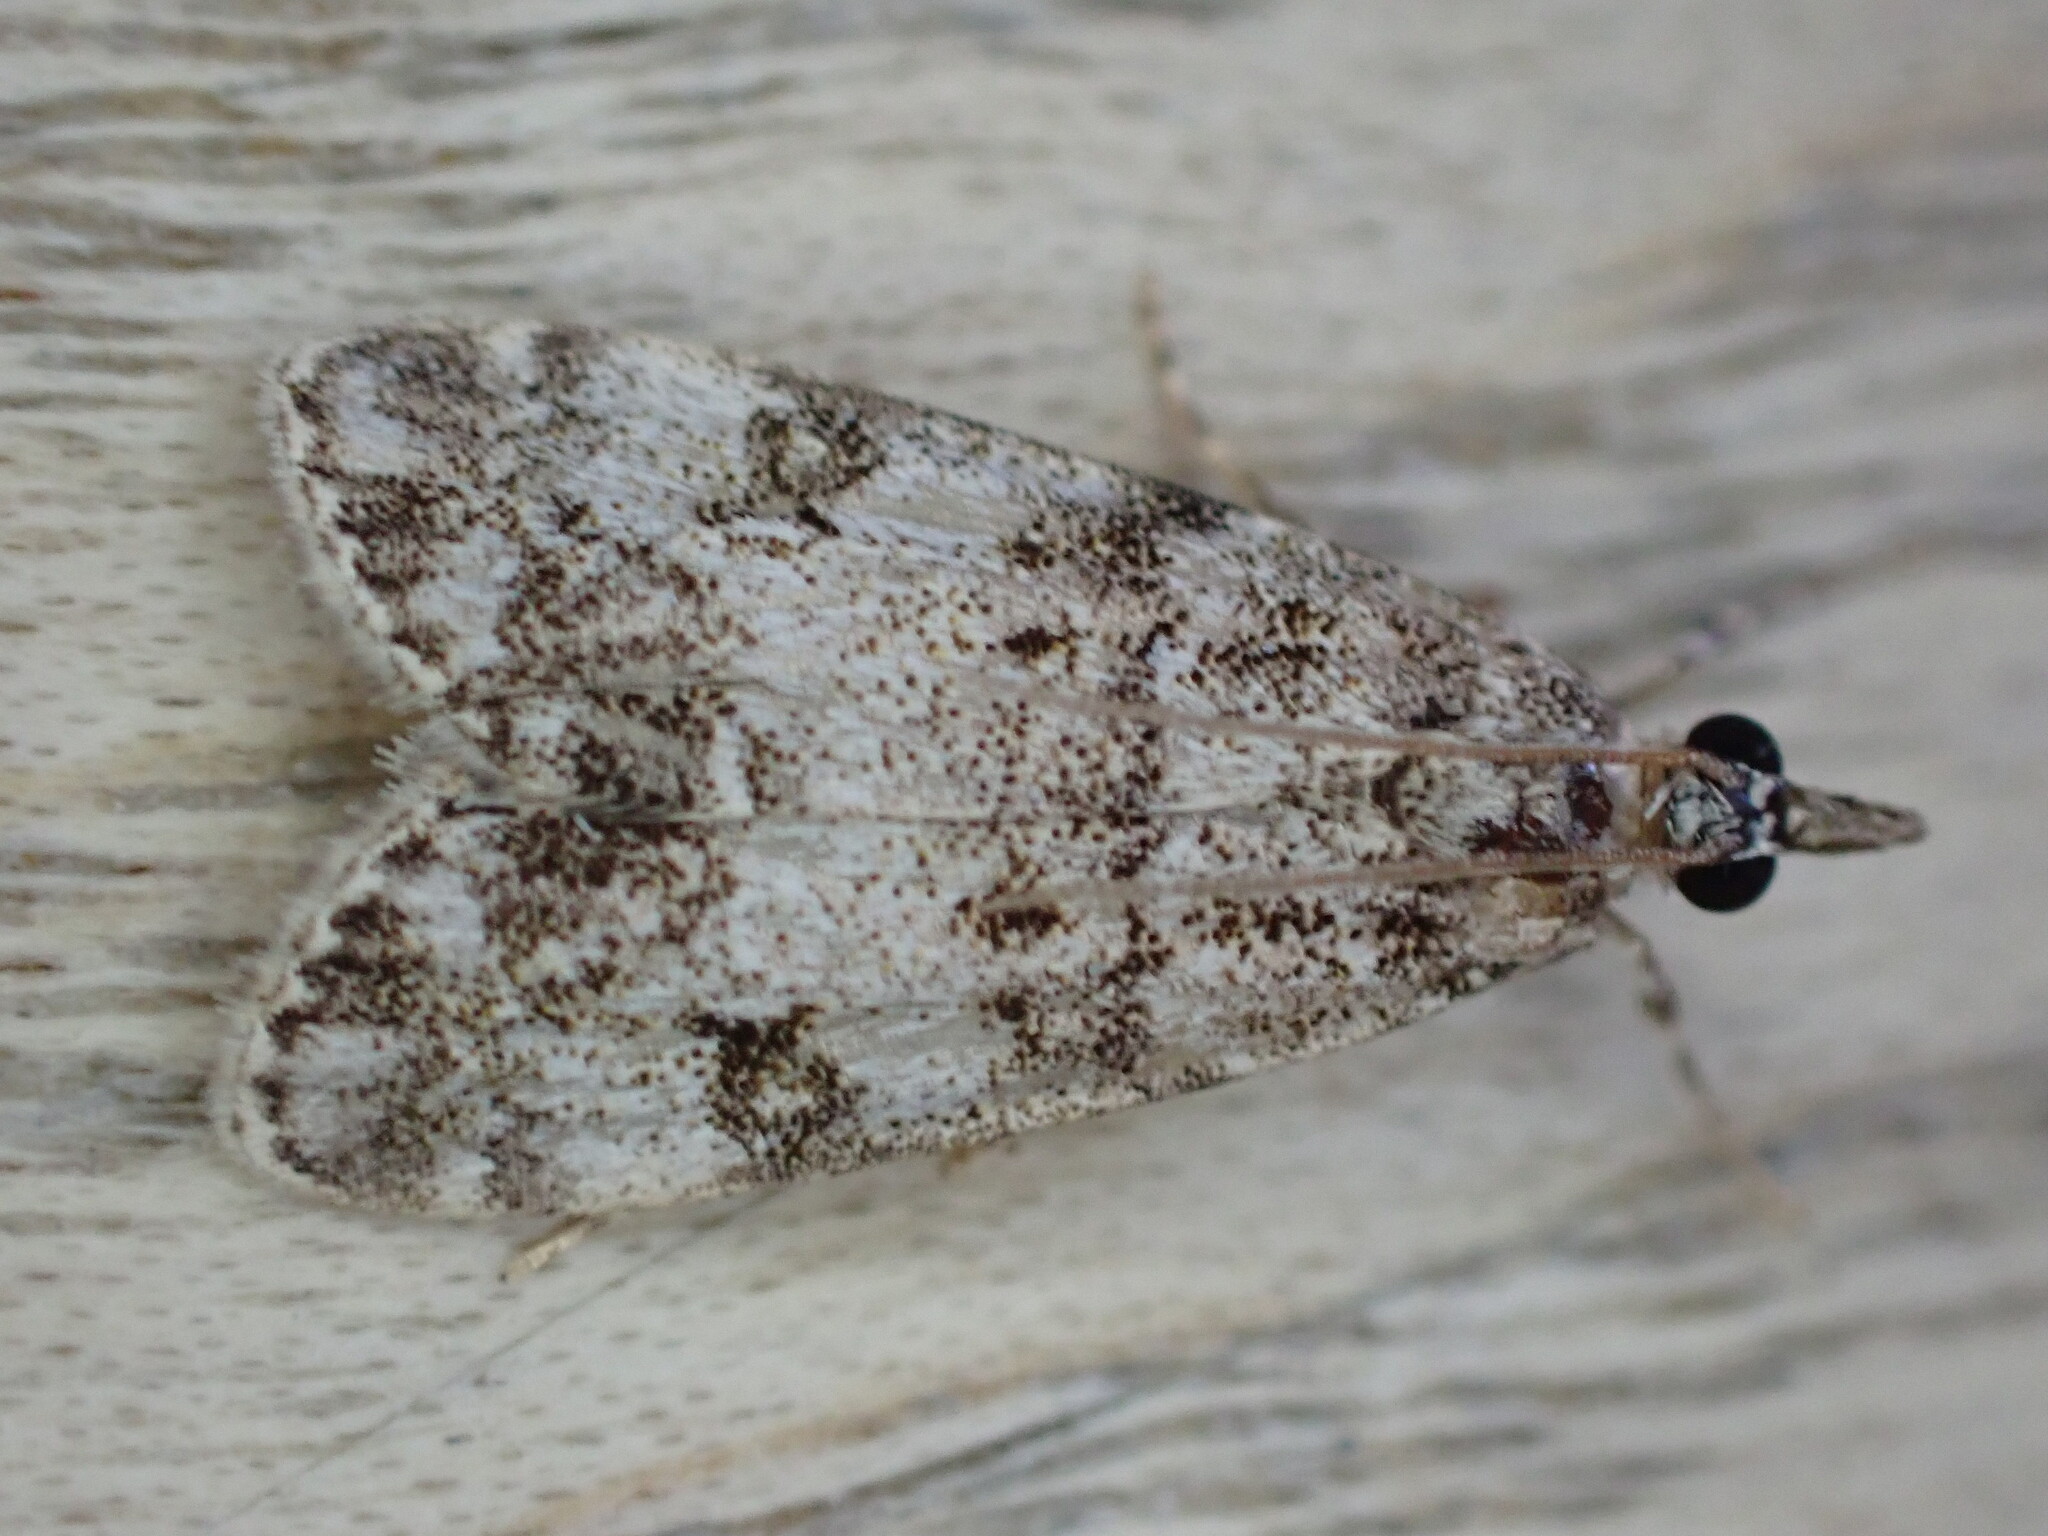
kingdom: Animalia
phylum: Arthropoda
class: Insecta
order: Lepidoptera
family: Crambidae
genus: Eudonia
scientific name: Eudonia lacustrata
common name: Little grey
